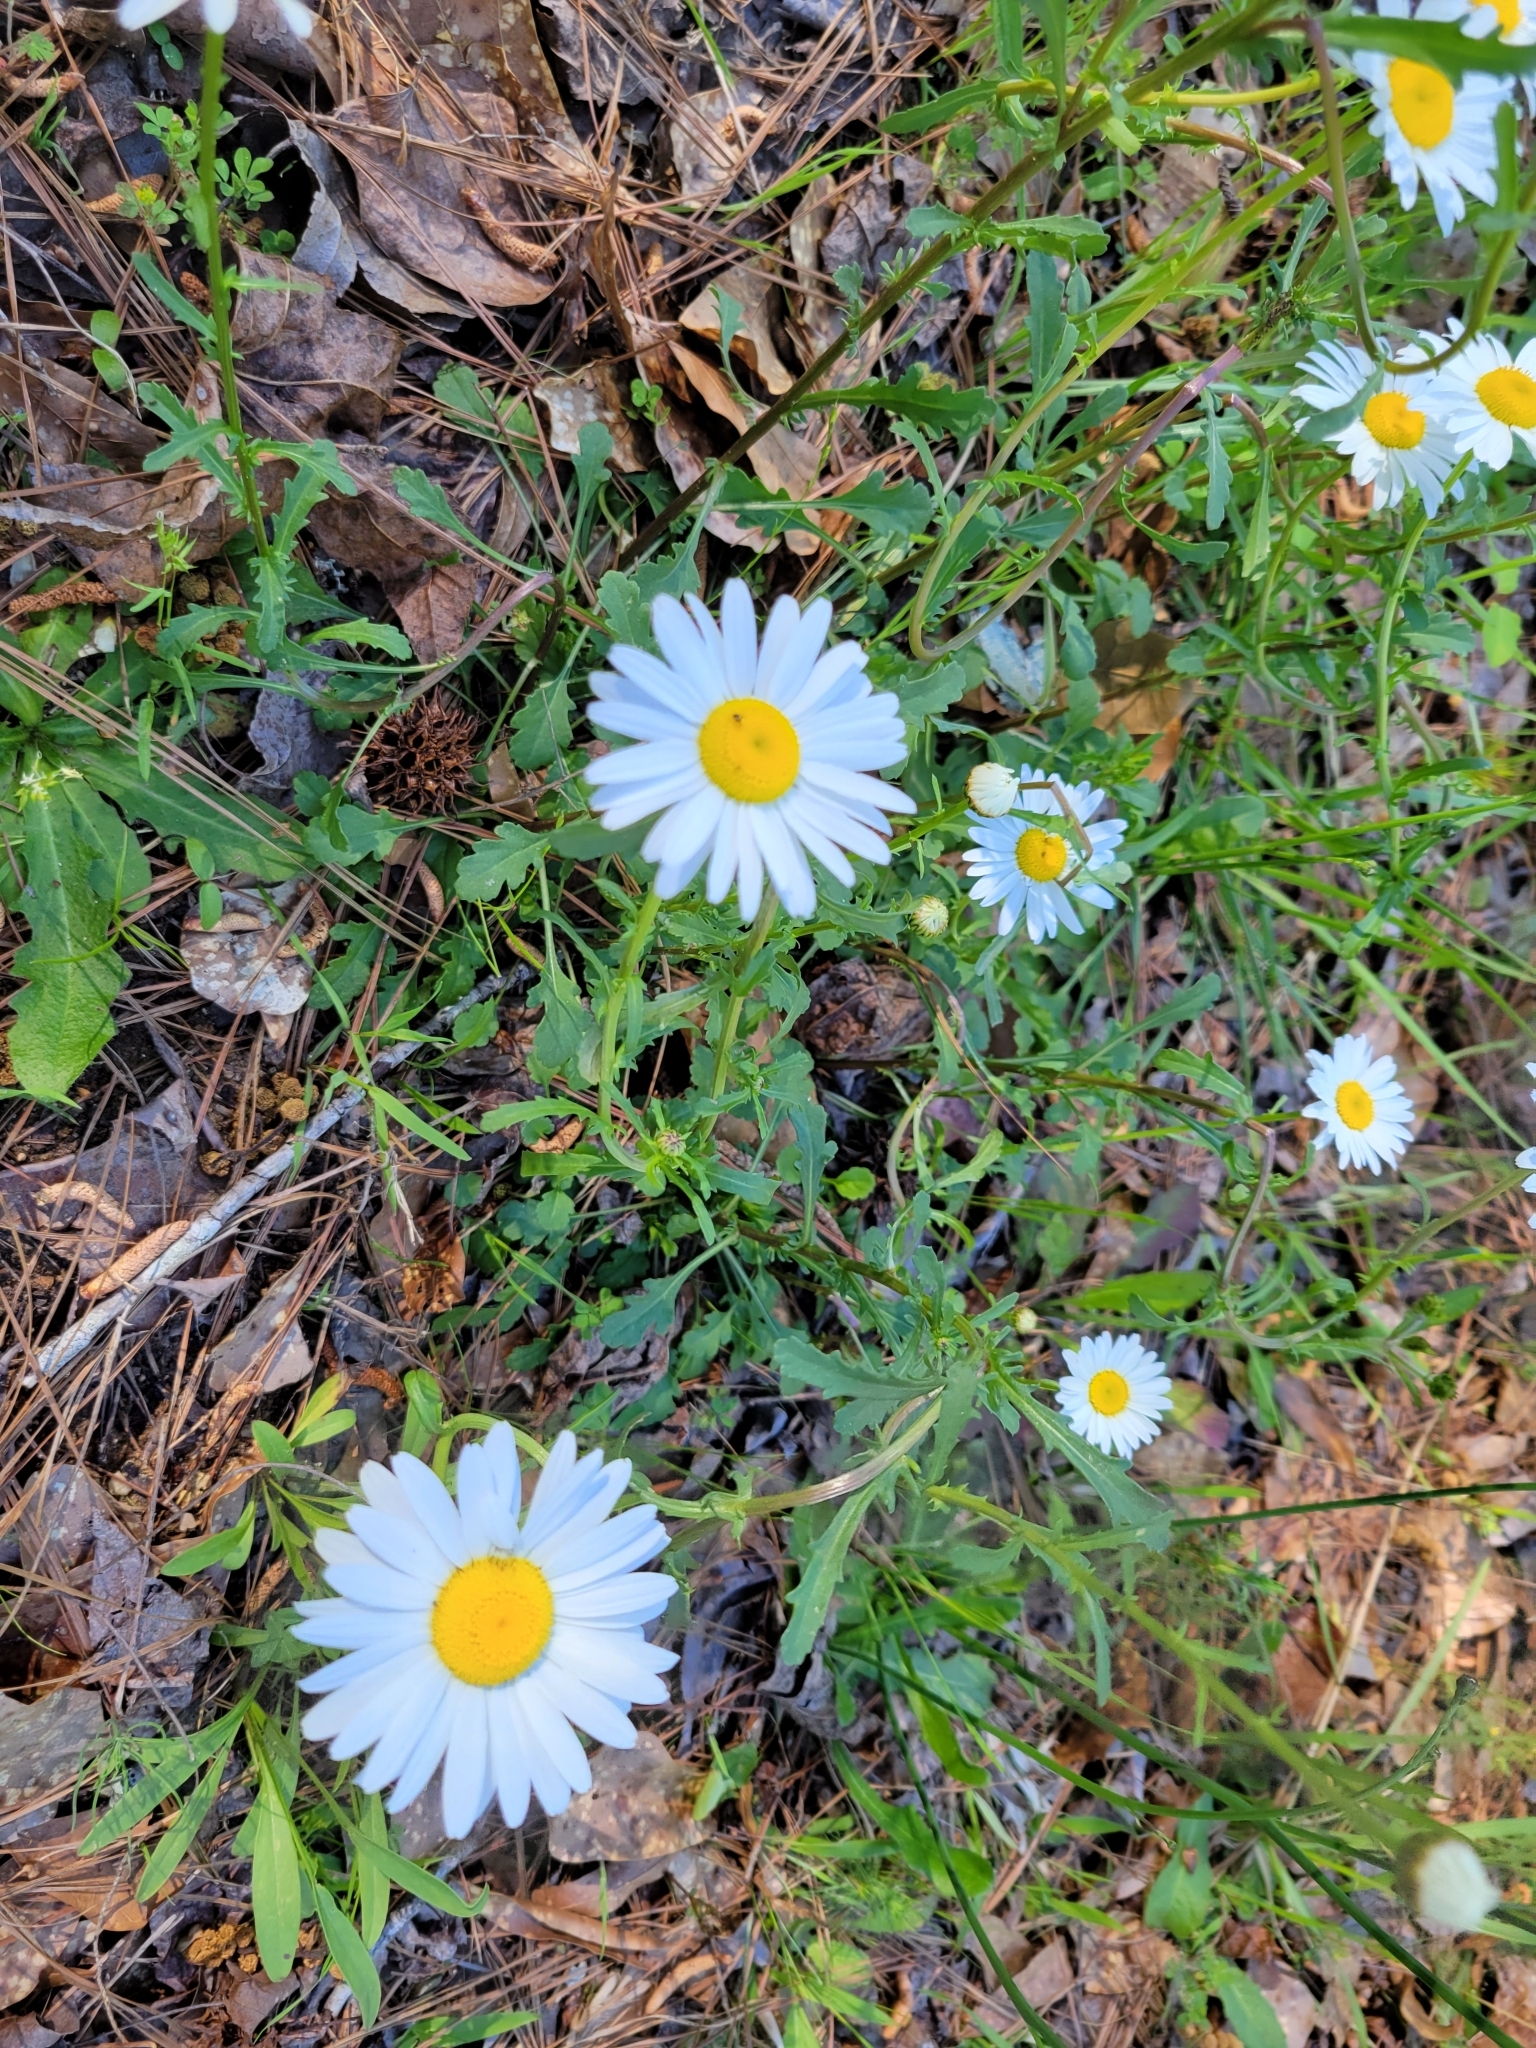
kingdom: Plantae
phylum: Tracheophyta
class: Magnoliopsida
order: Asterales
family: Asteraceae
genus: Leucanthemum
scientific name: Leucanthemum vulgare
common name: Oxeye daisy
